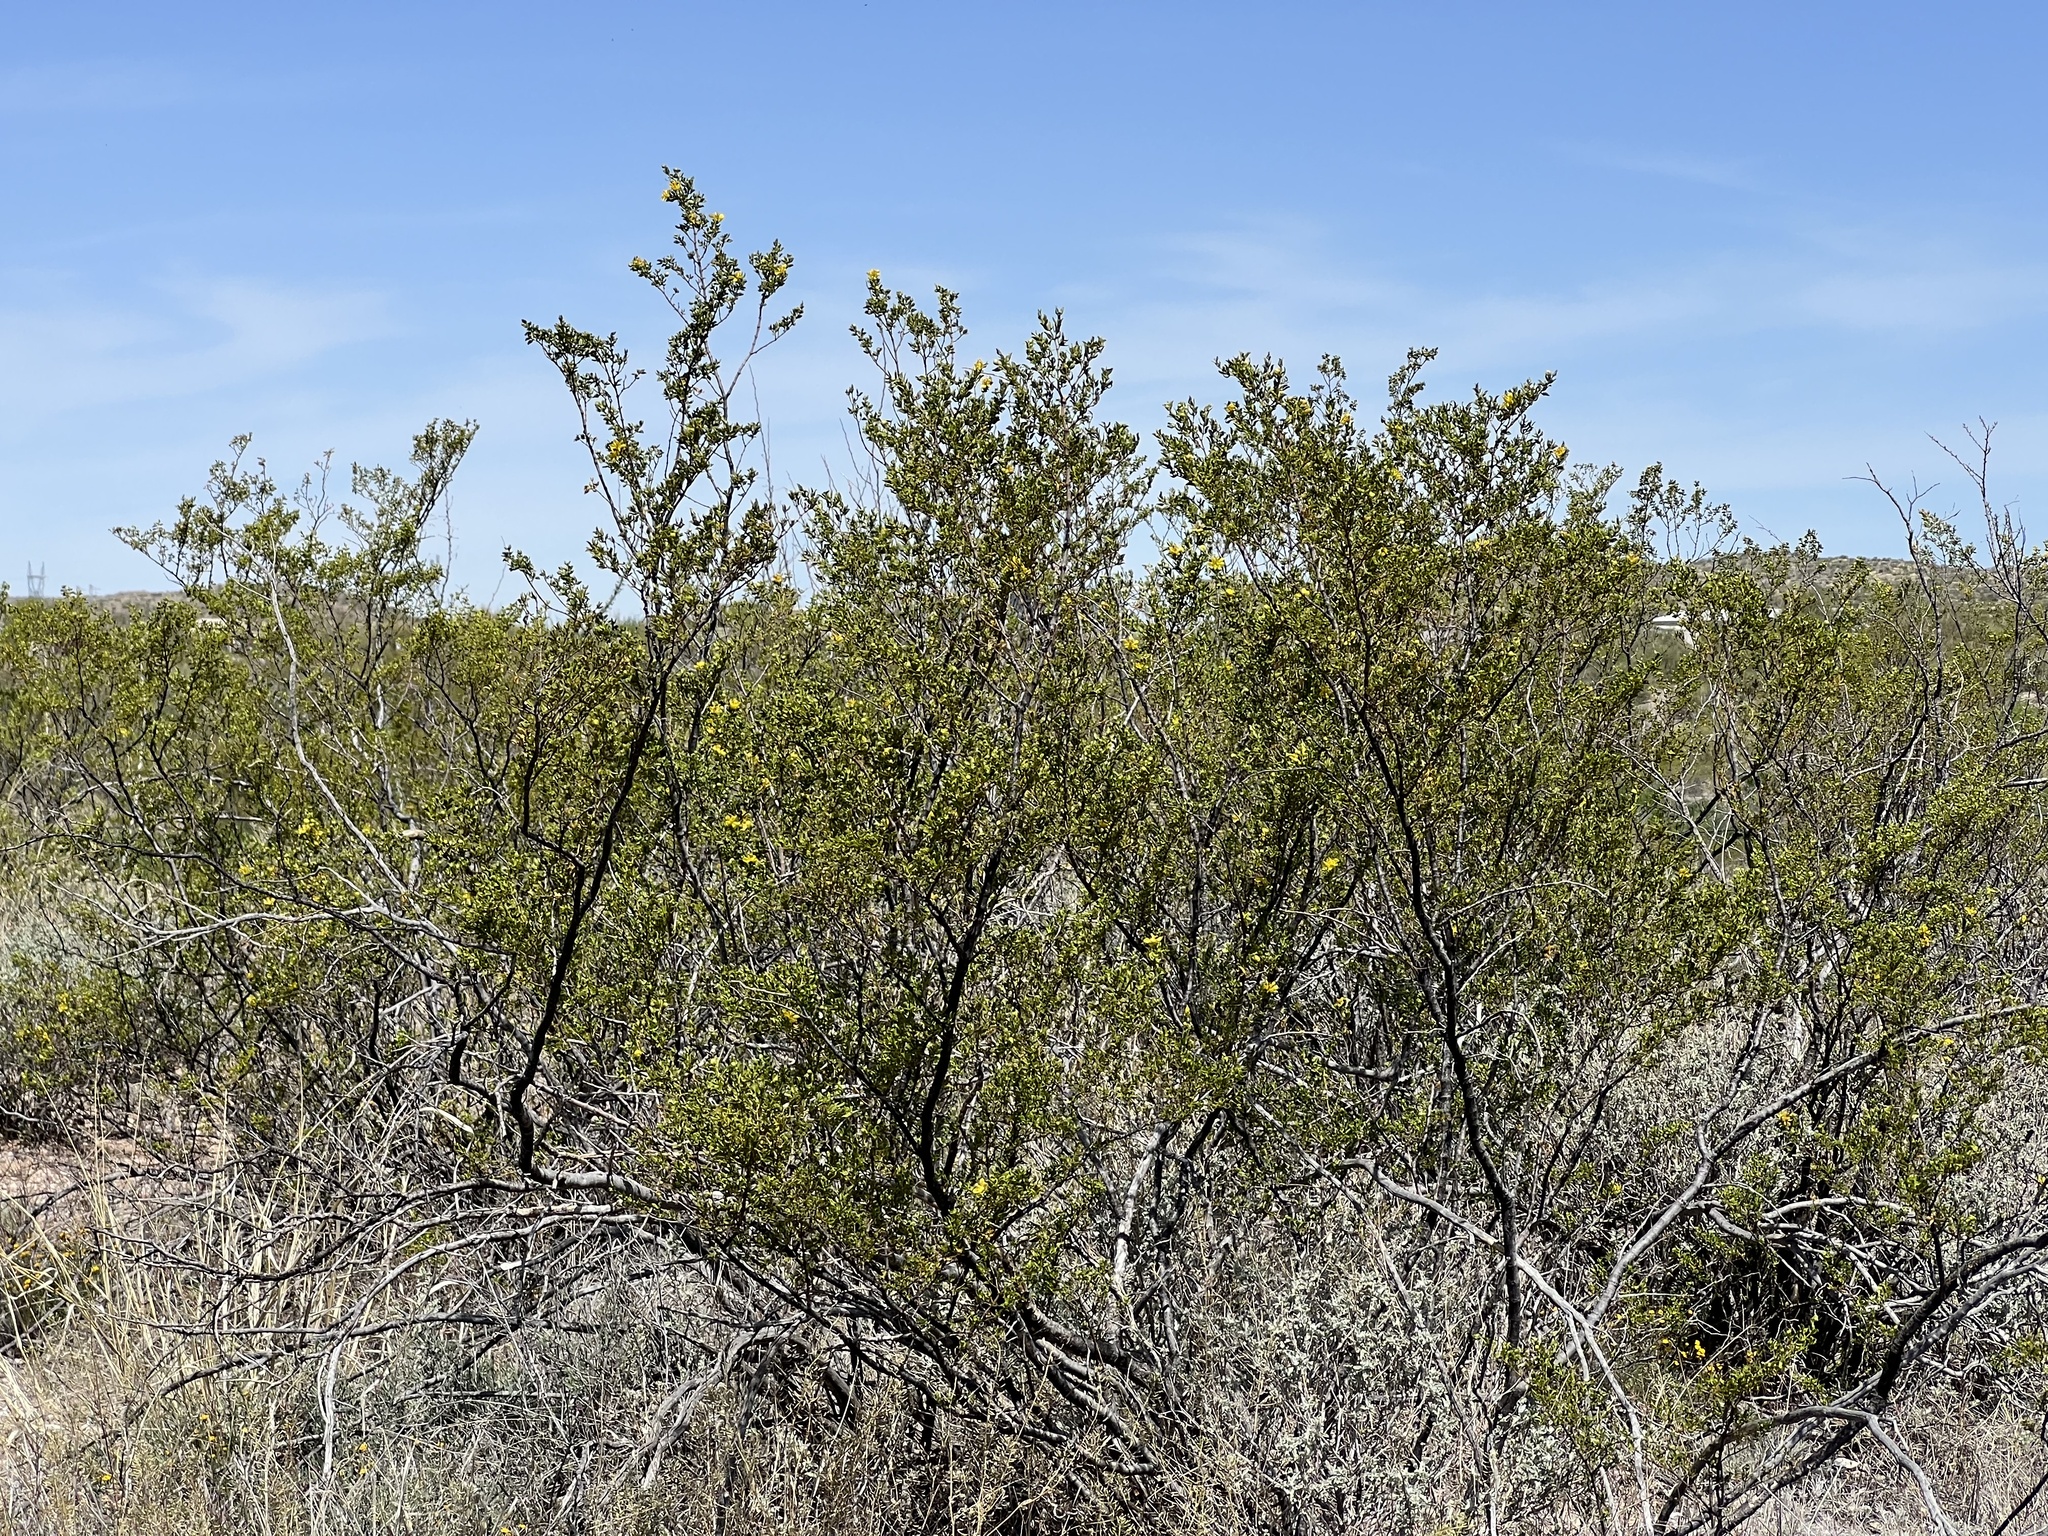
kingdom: Plantae
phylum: Tracheophyta
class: Magnoliopsida
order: Zygophyllales
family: Zygophyllaceae
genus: Larrea
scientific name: Larrea tridentata
